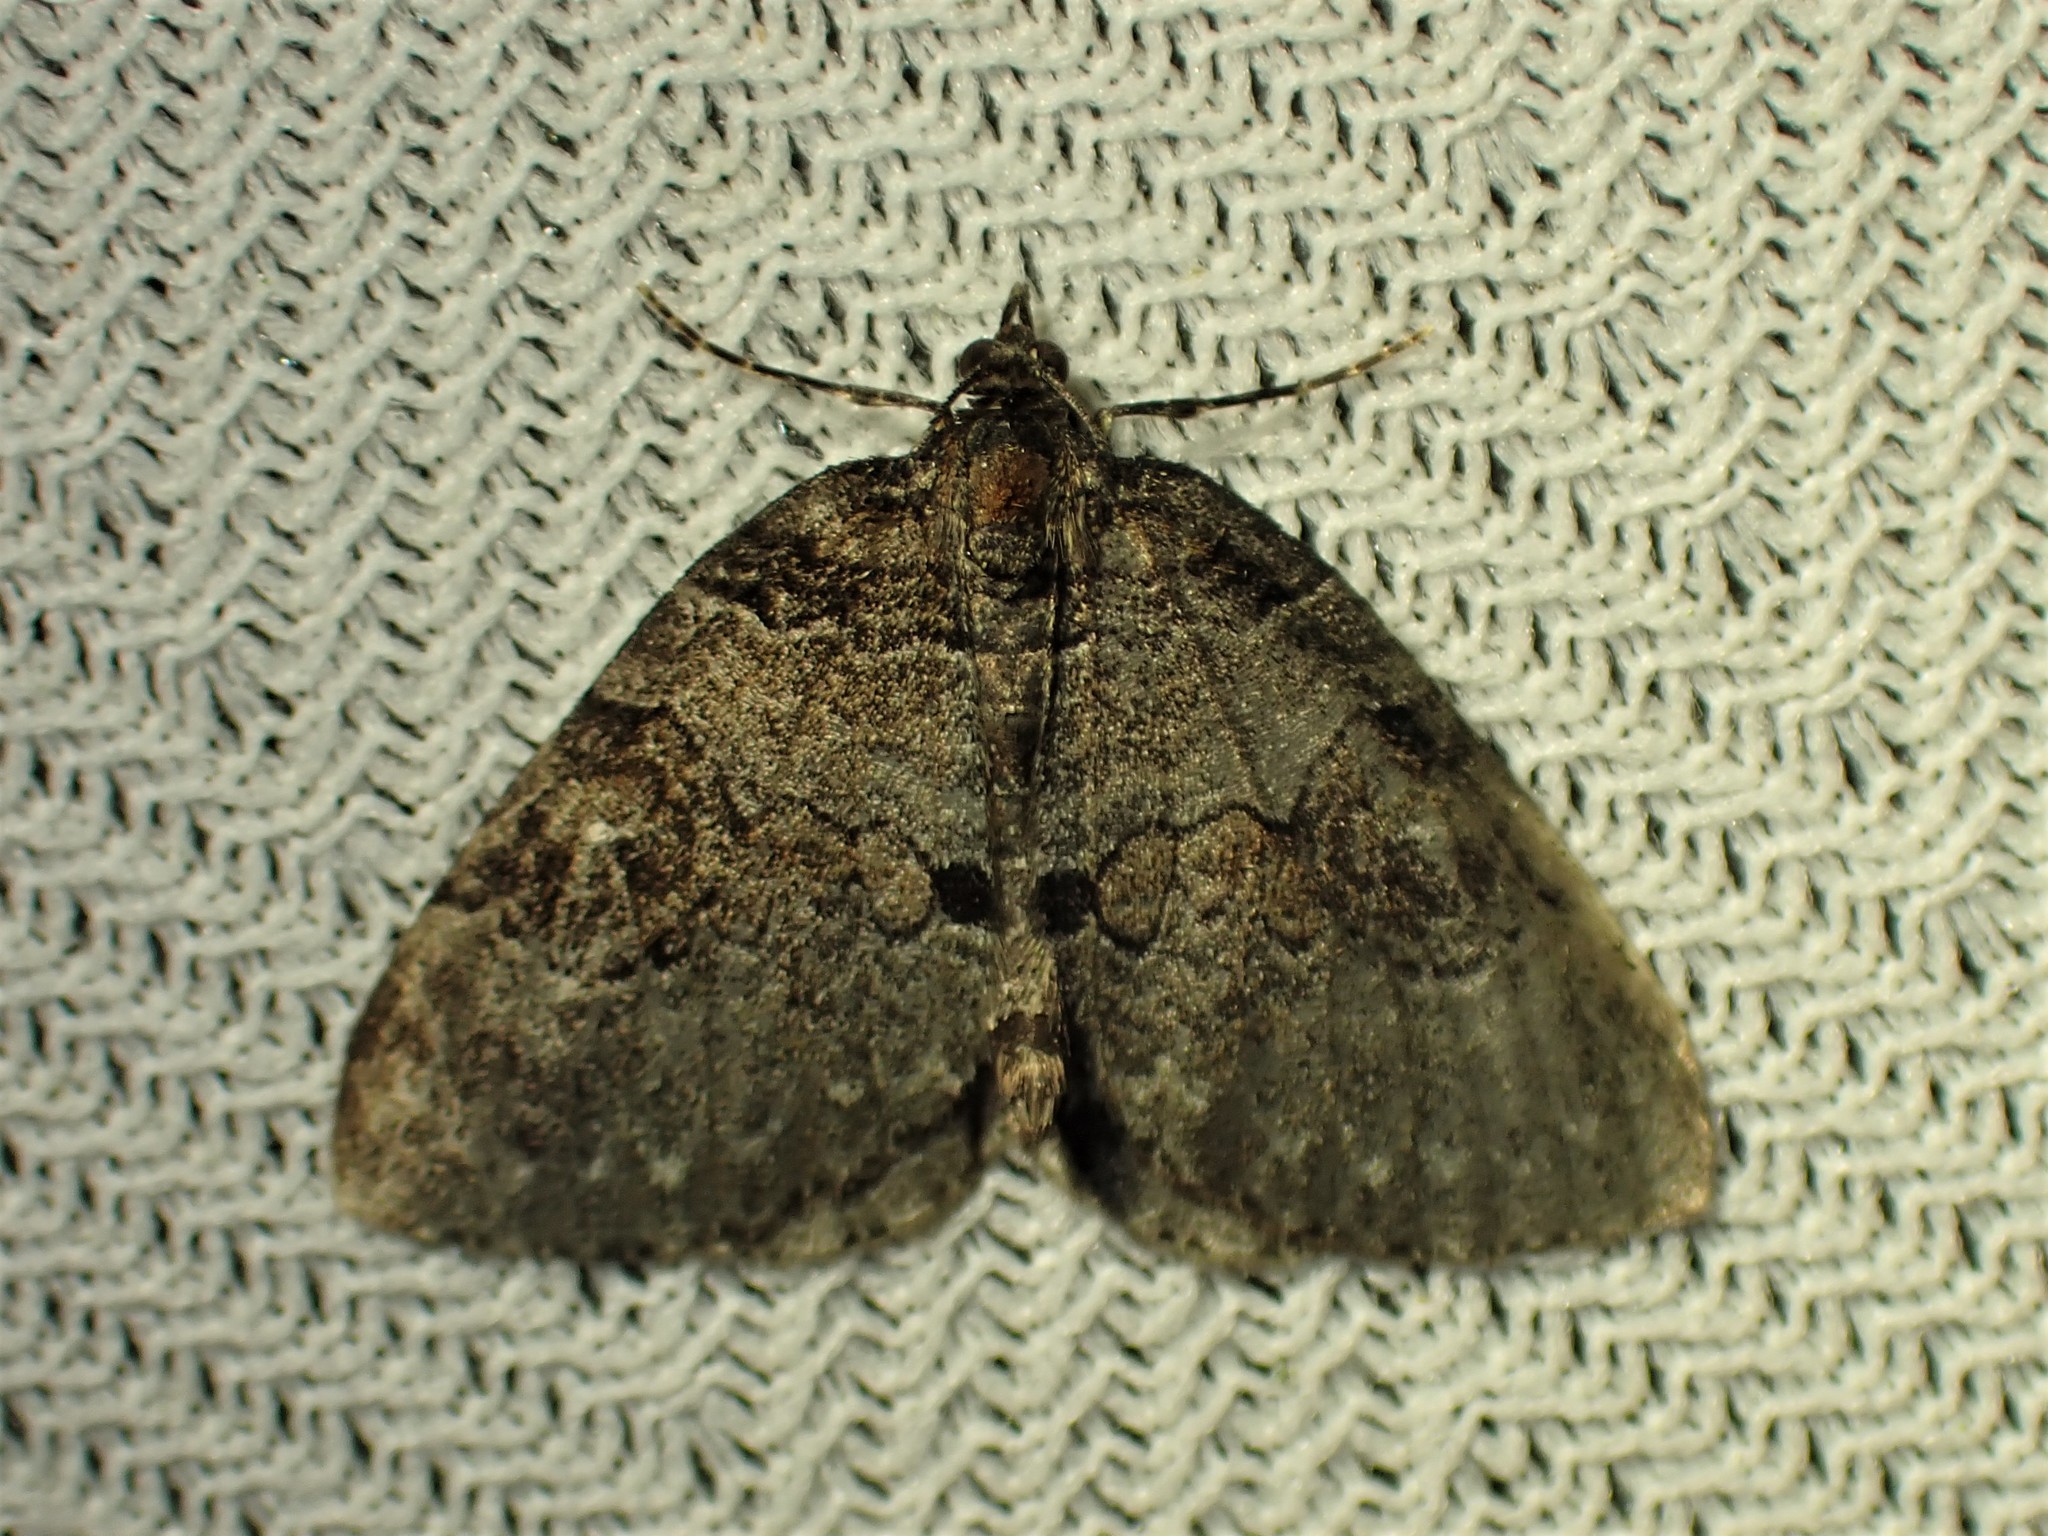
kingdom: Animalia
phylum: Arthropoda
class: Insecta
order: Lepidoptera
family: Geometridae
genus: Plemyria
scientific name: Plemyria georgii
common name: George's carpet moth
